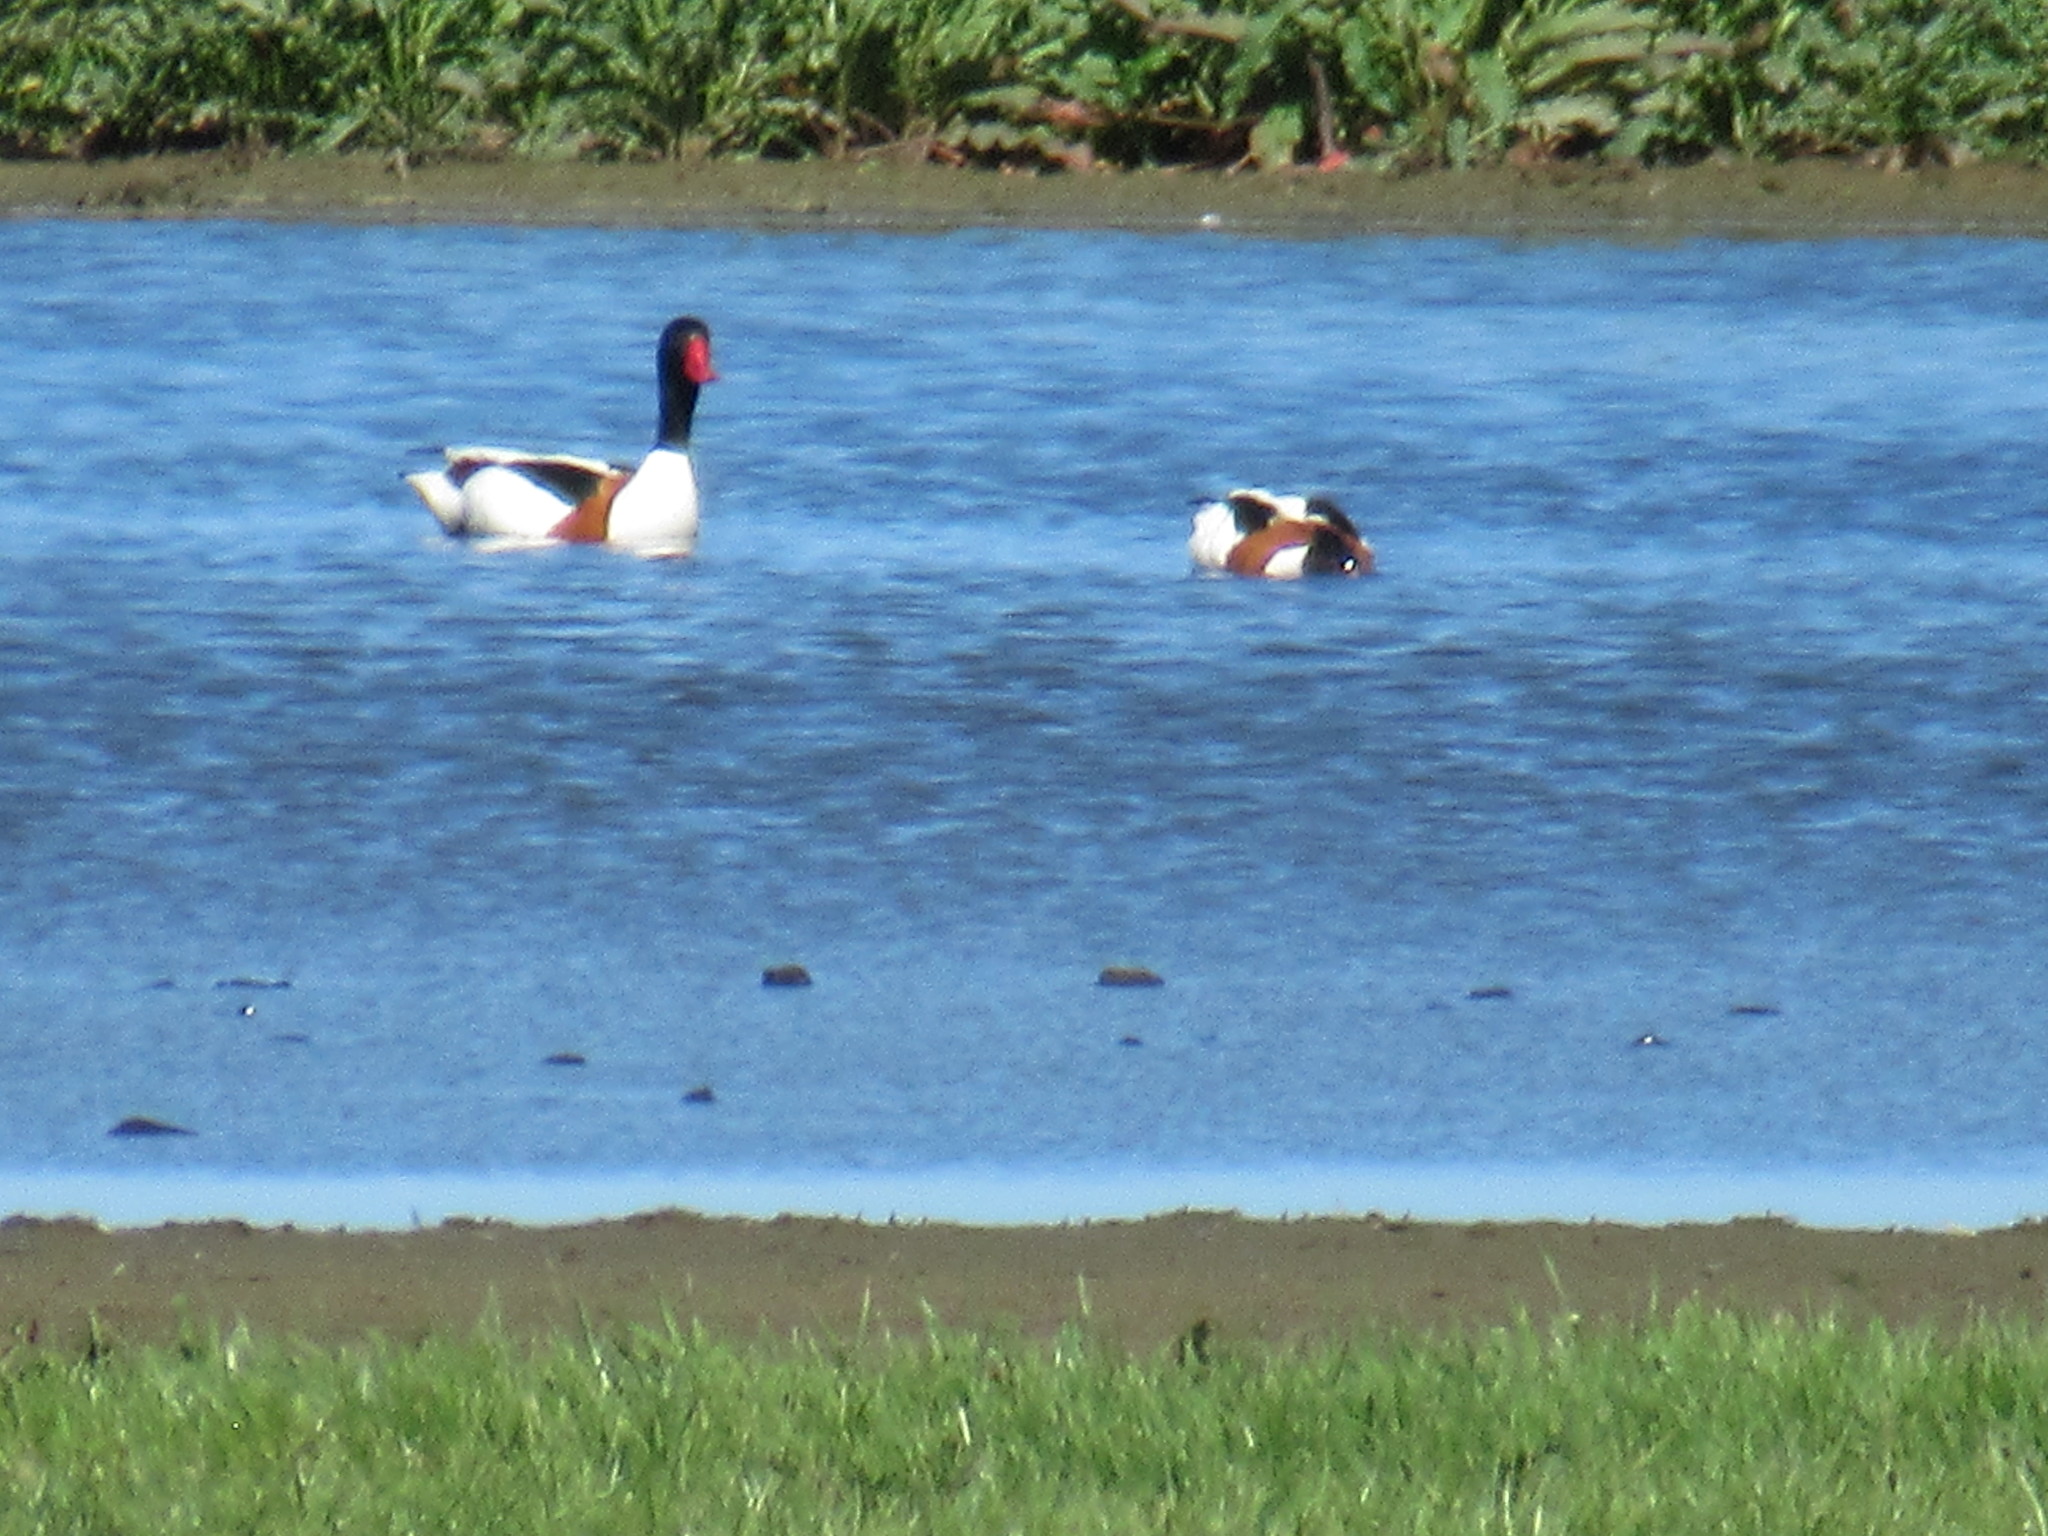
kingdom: Animalia
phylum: Chordata
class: Aves
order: Anseriformes
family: Anatidae
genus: Tadorna
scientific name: Tadorna tadorna
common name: Common shelduck
